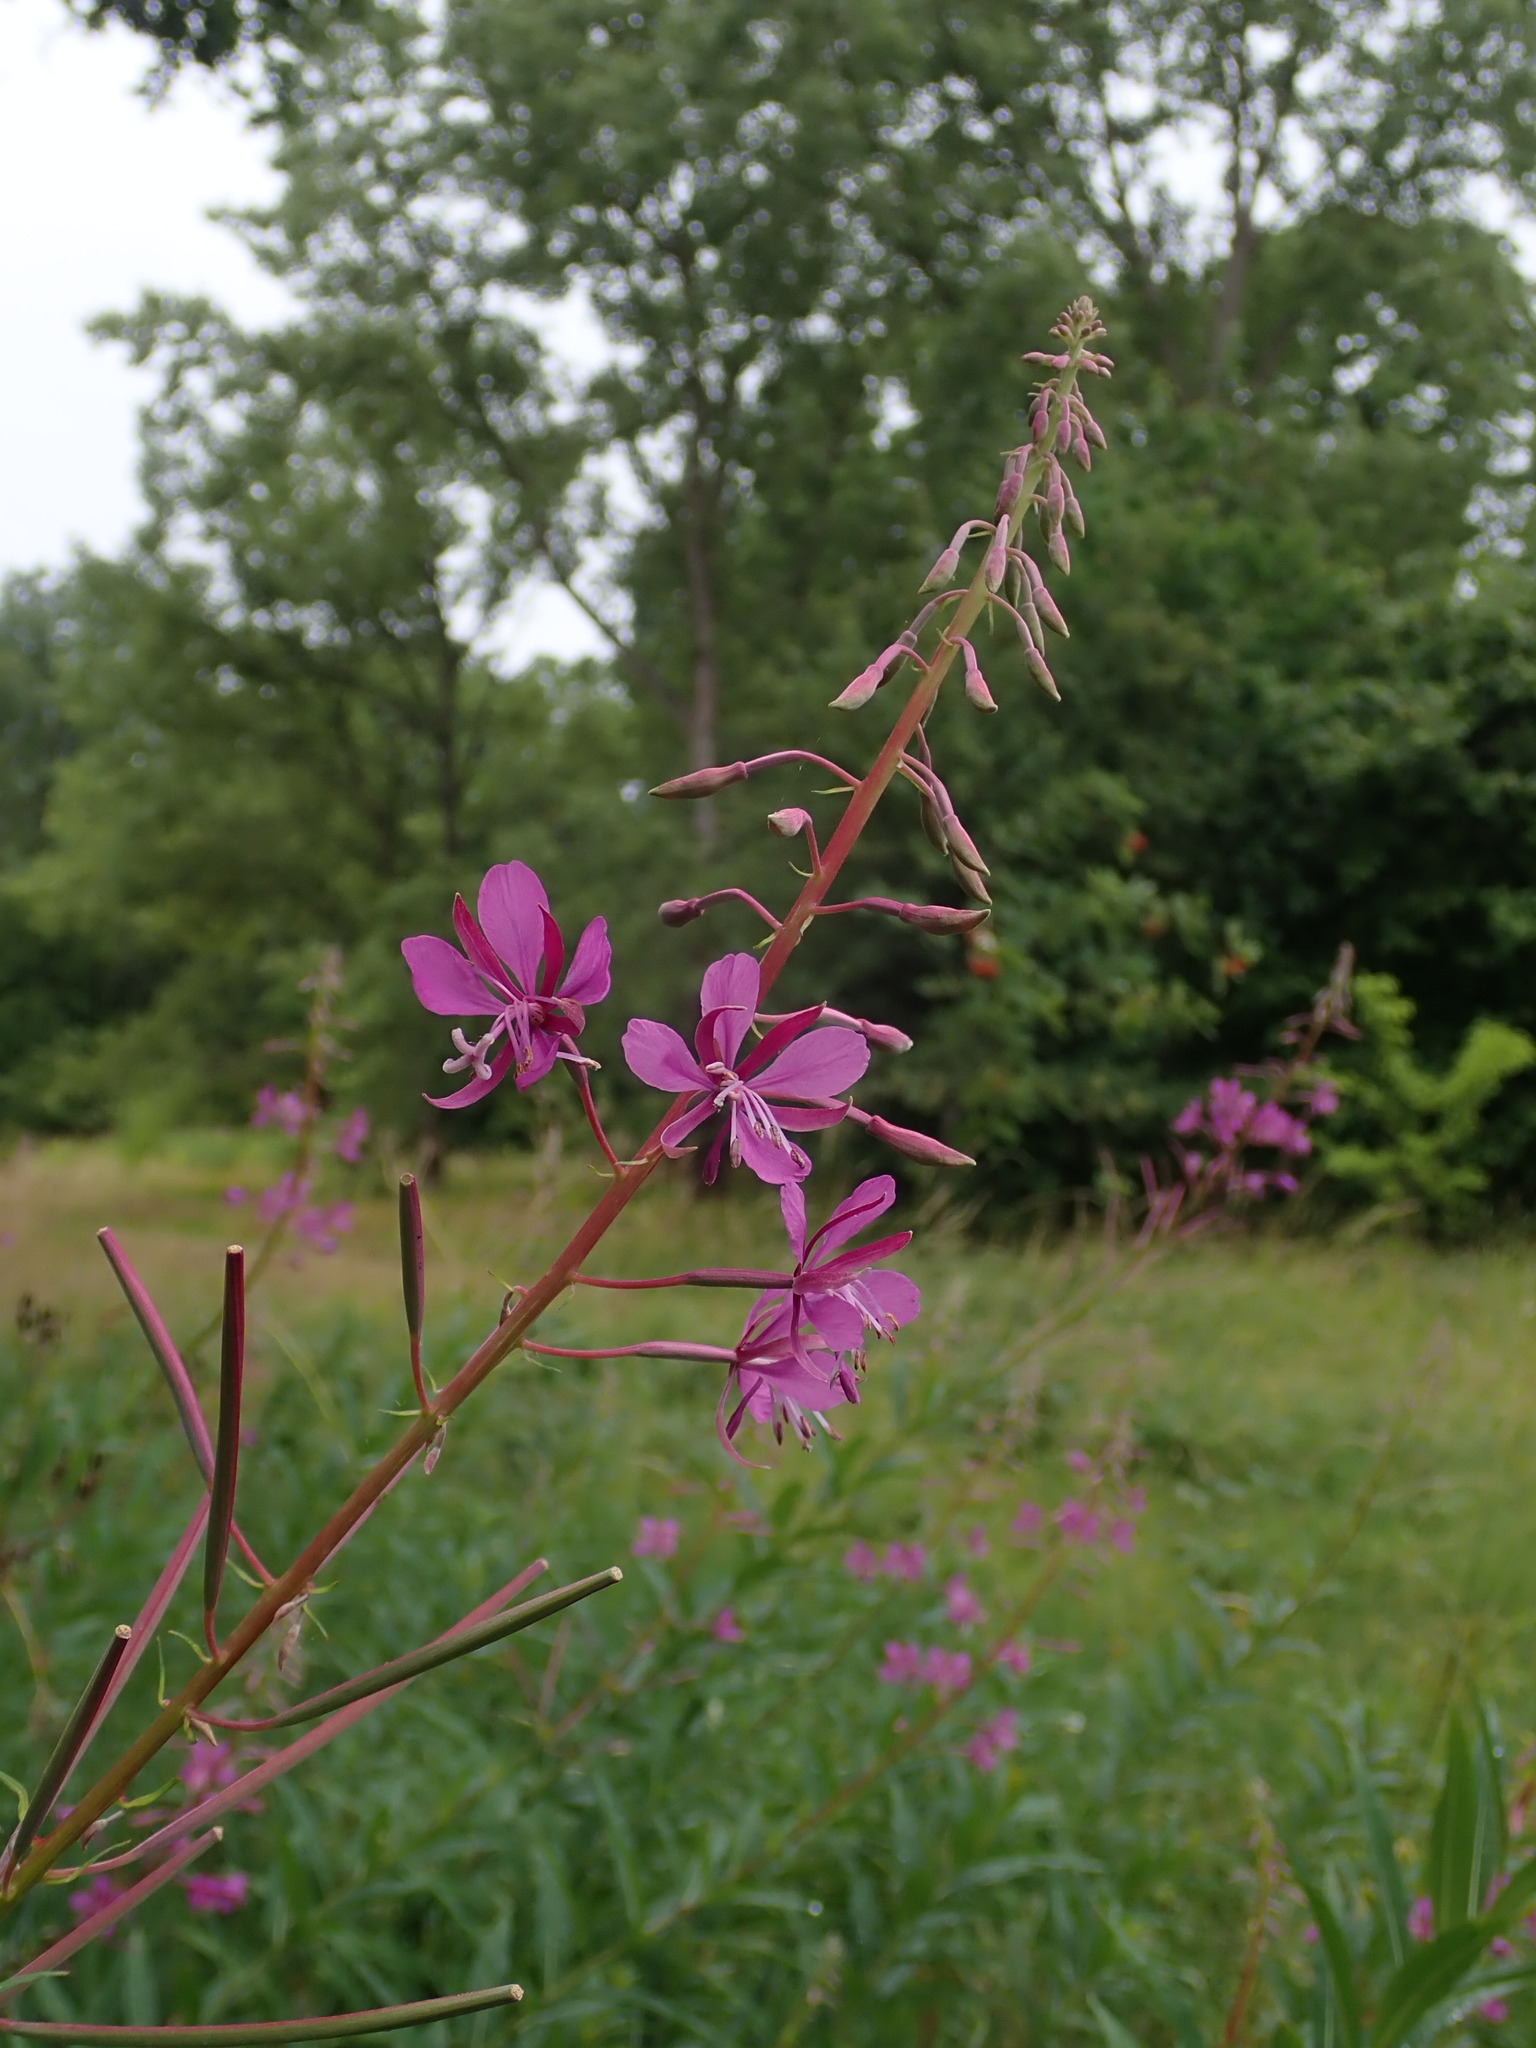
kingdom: Plantae
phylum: Tracheophyta
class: Magnoliopsida
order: Myrtales
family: Onagraceae
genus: Chamaenerion
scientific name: Chamaenerion angustifolium
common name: Fireweed
